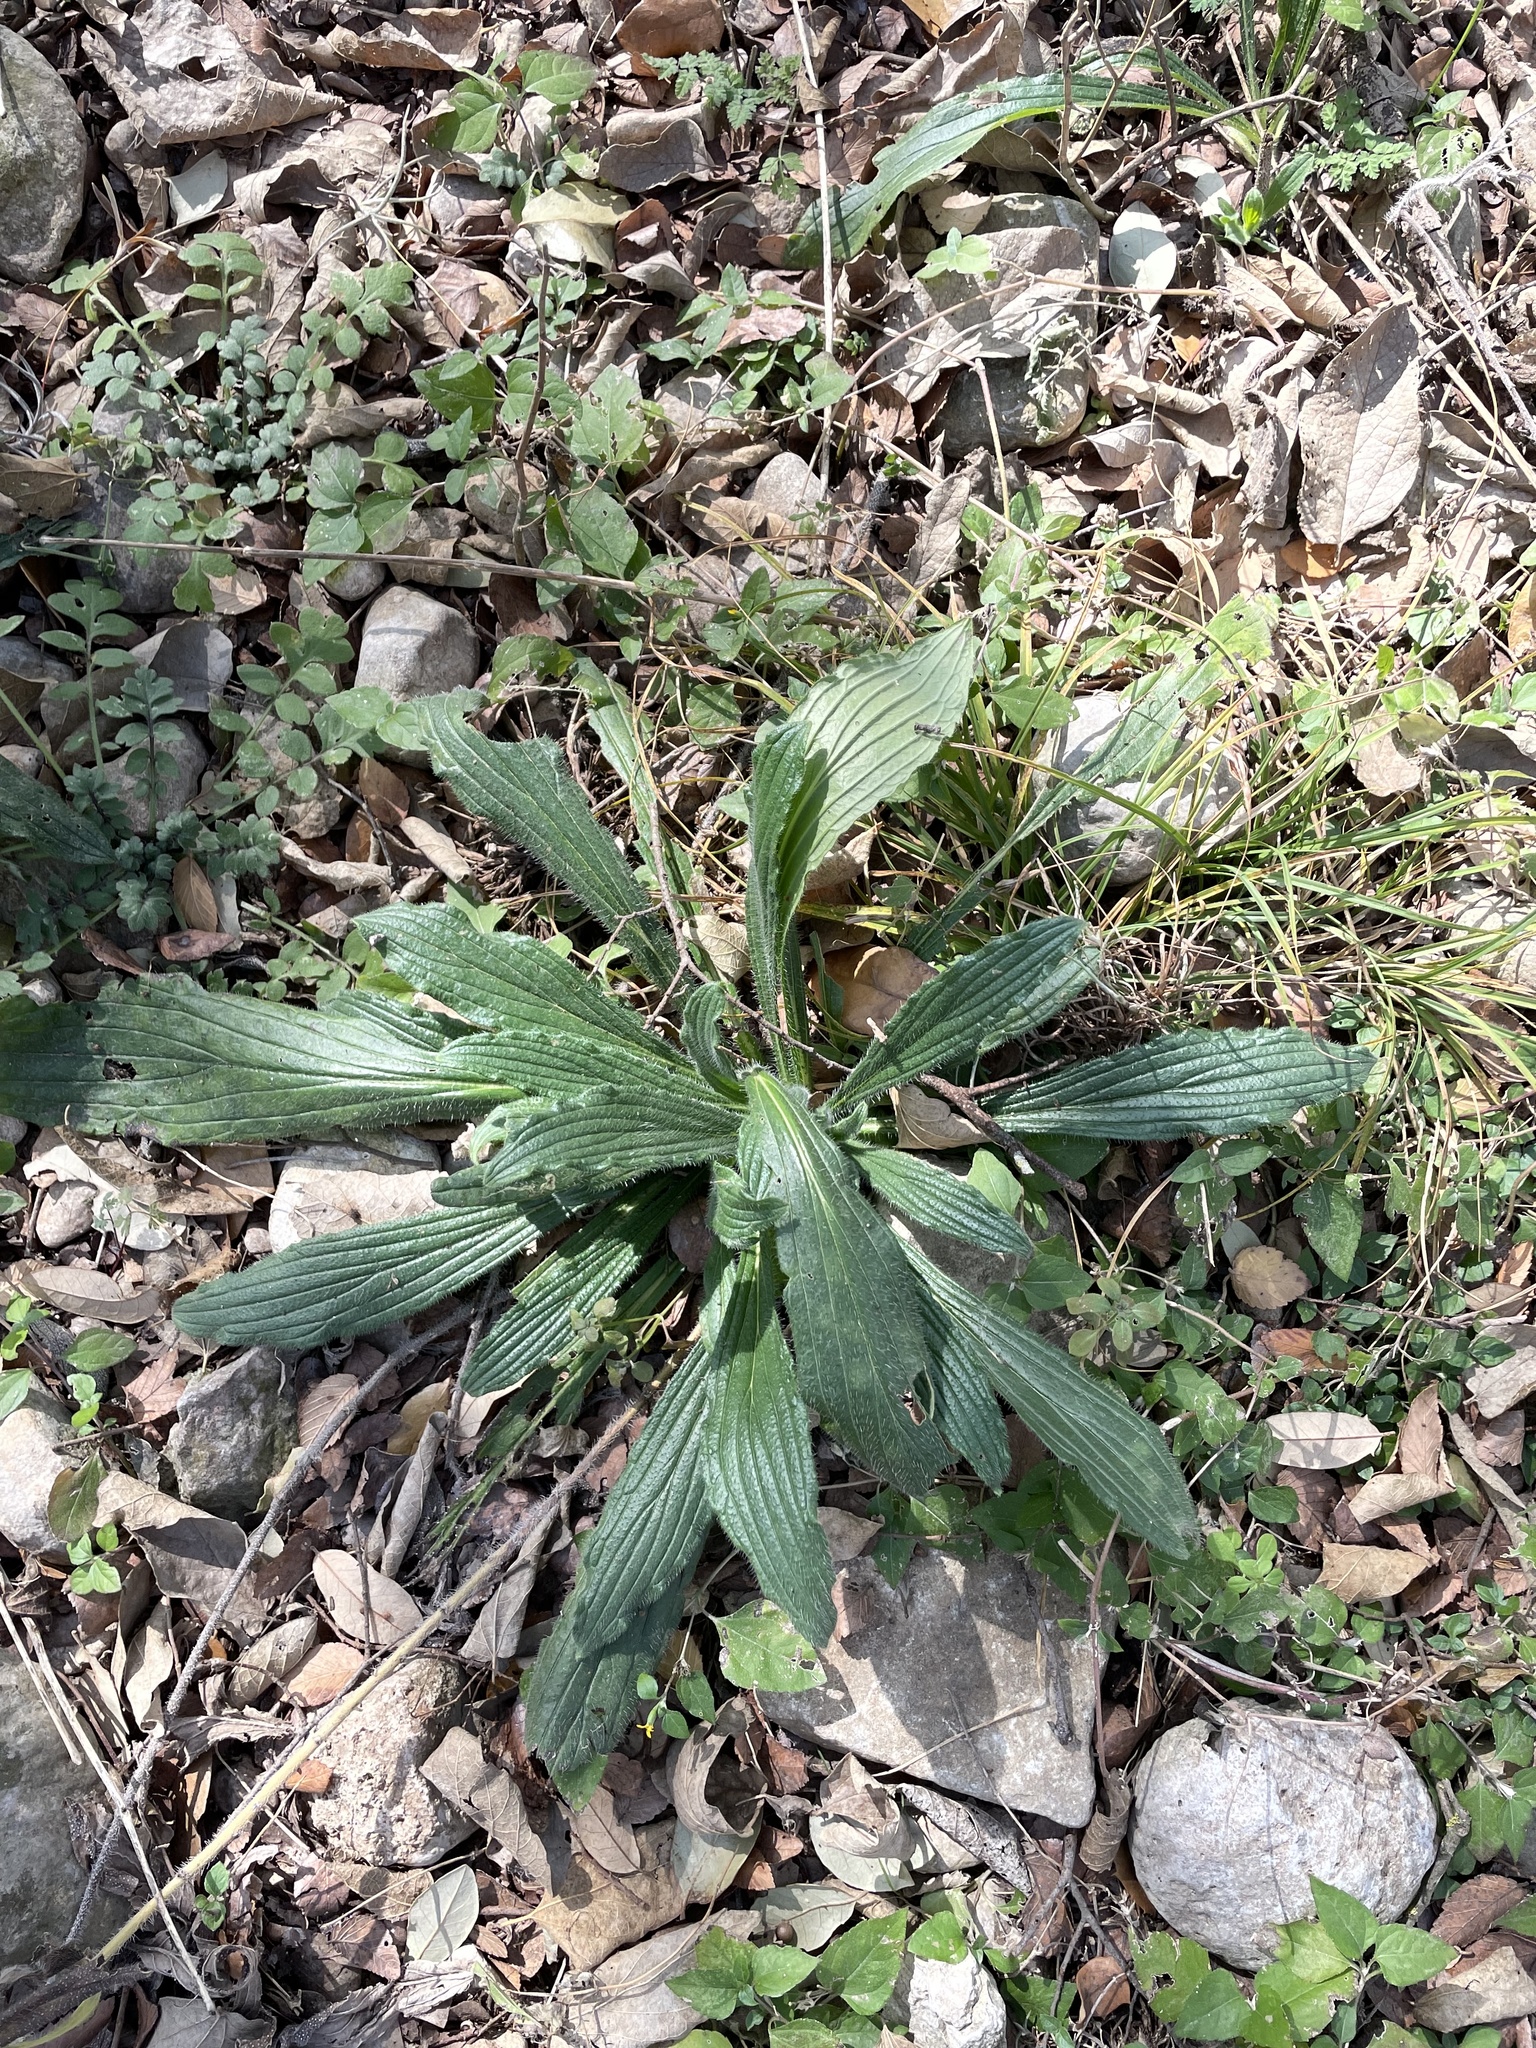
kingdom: Plantae
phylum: Tracheophyta
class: Magnoliopsida
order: Boraginales
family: Boraginaceae
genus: Lithospermum
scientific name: Lithospermum caroliniense
